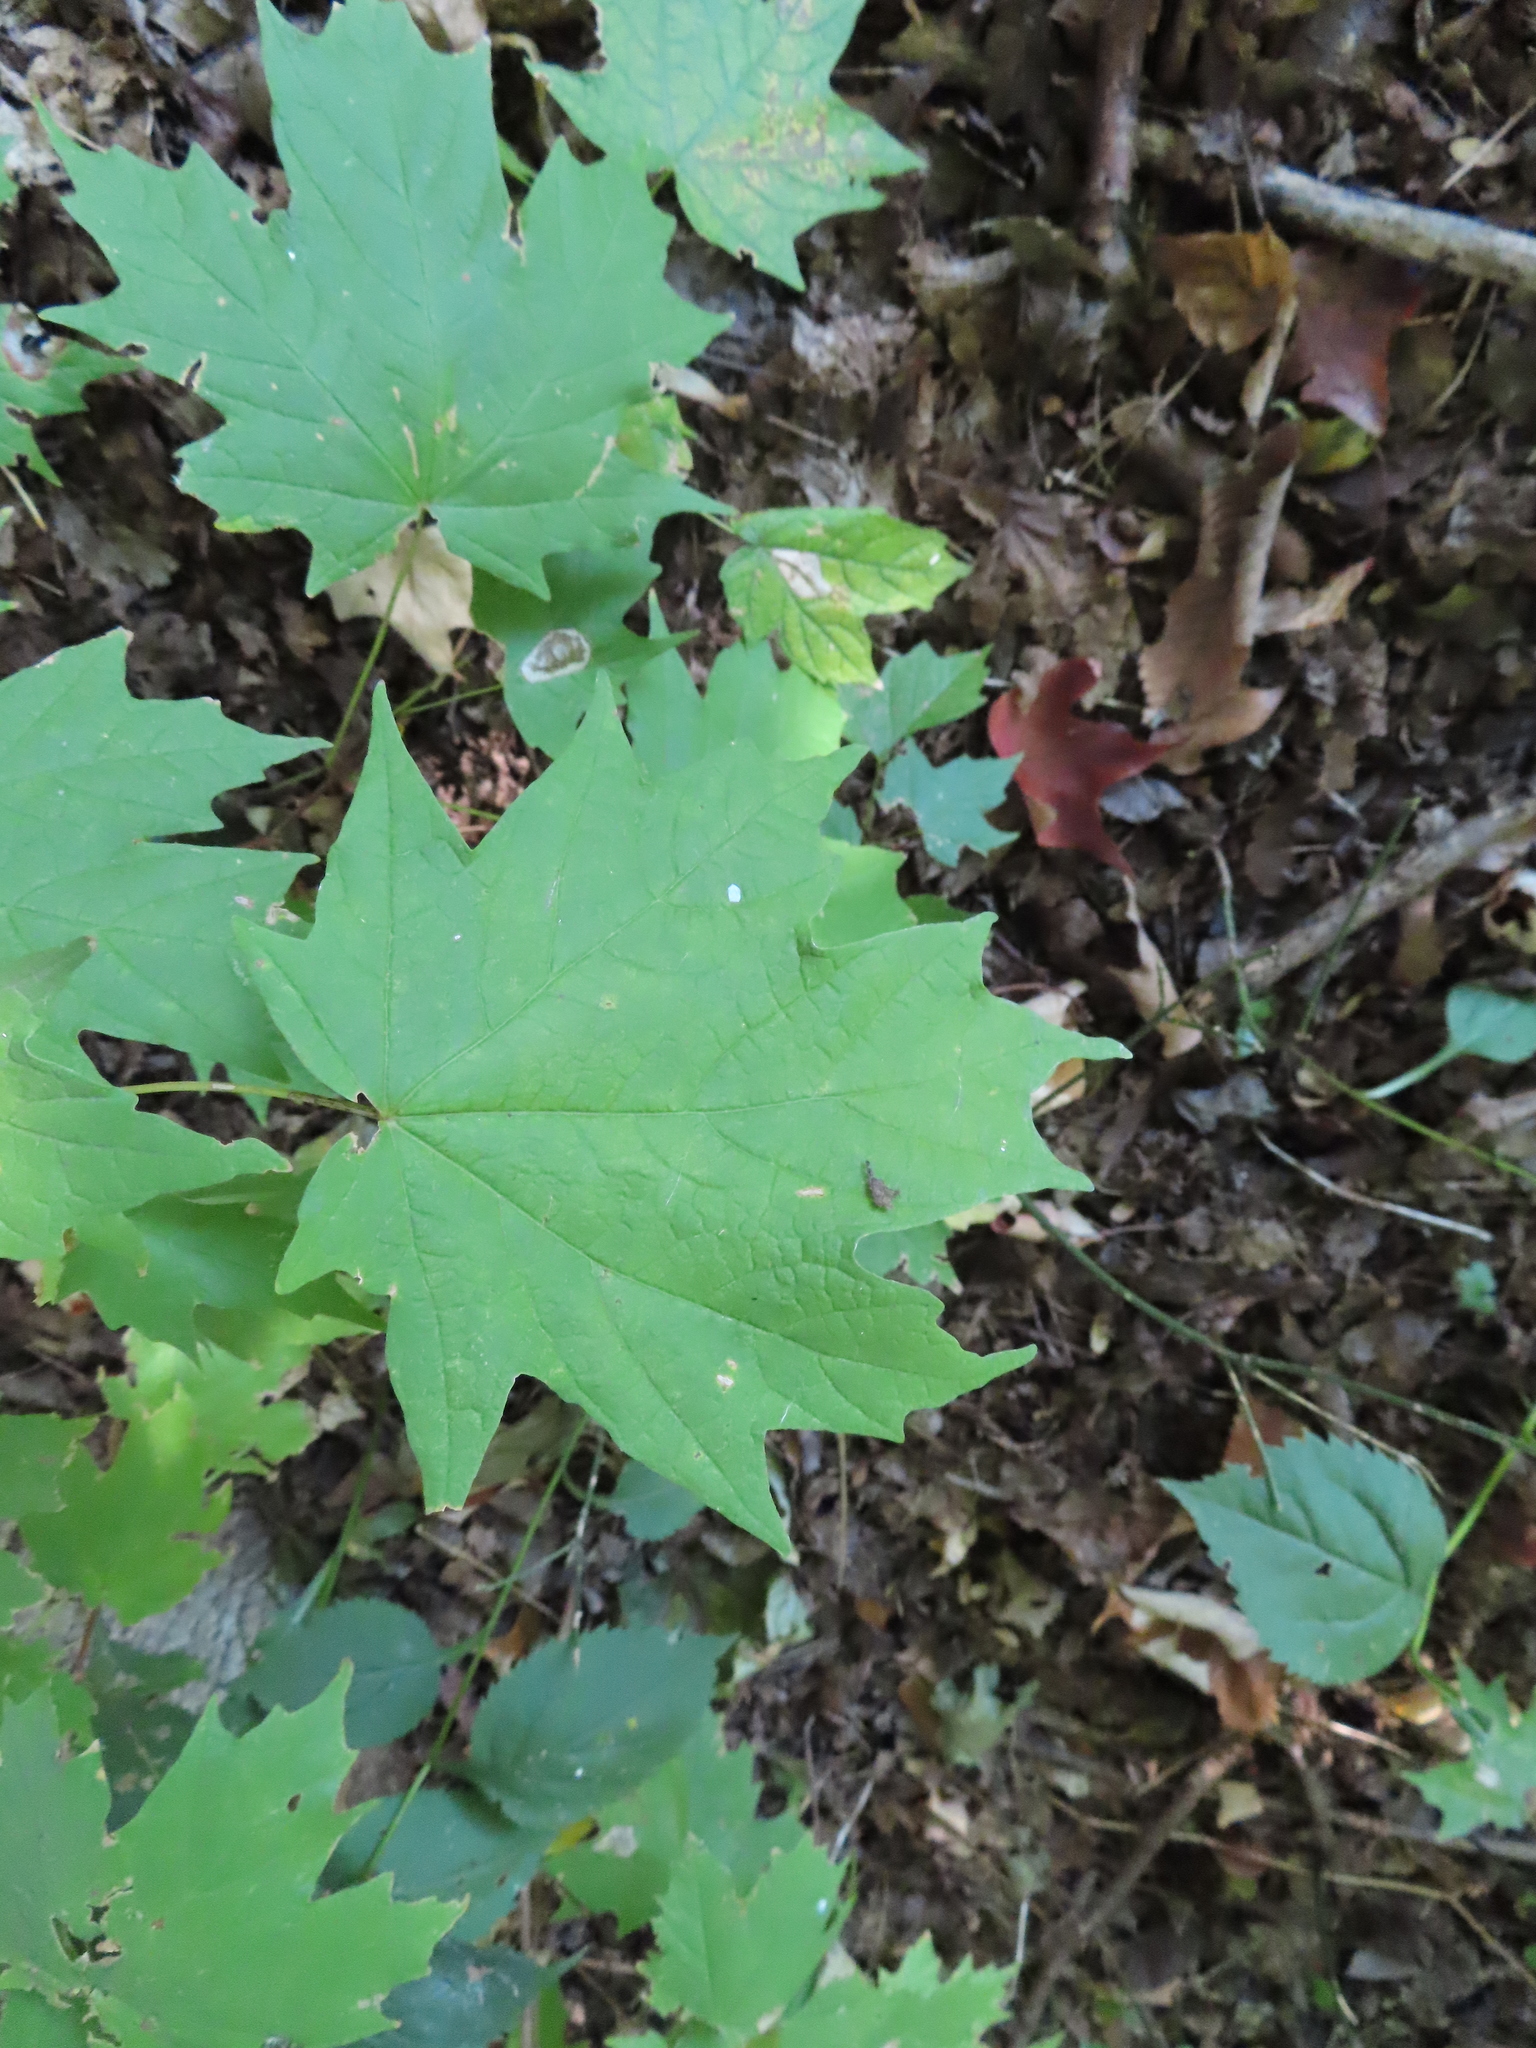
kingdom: Plantae
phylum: Tracheophyta
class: Magnoliopsida
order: Sapindales
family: Sapindaceae
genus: Acer
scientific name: Acer saccharum
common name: Sugar maple
